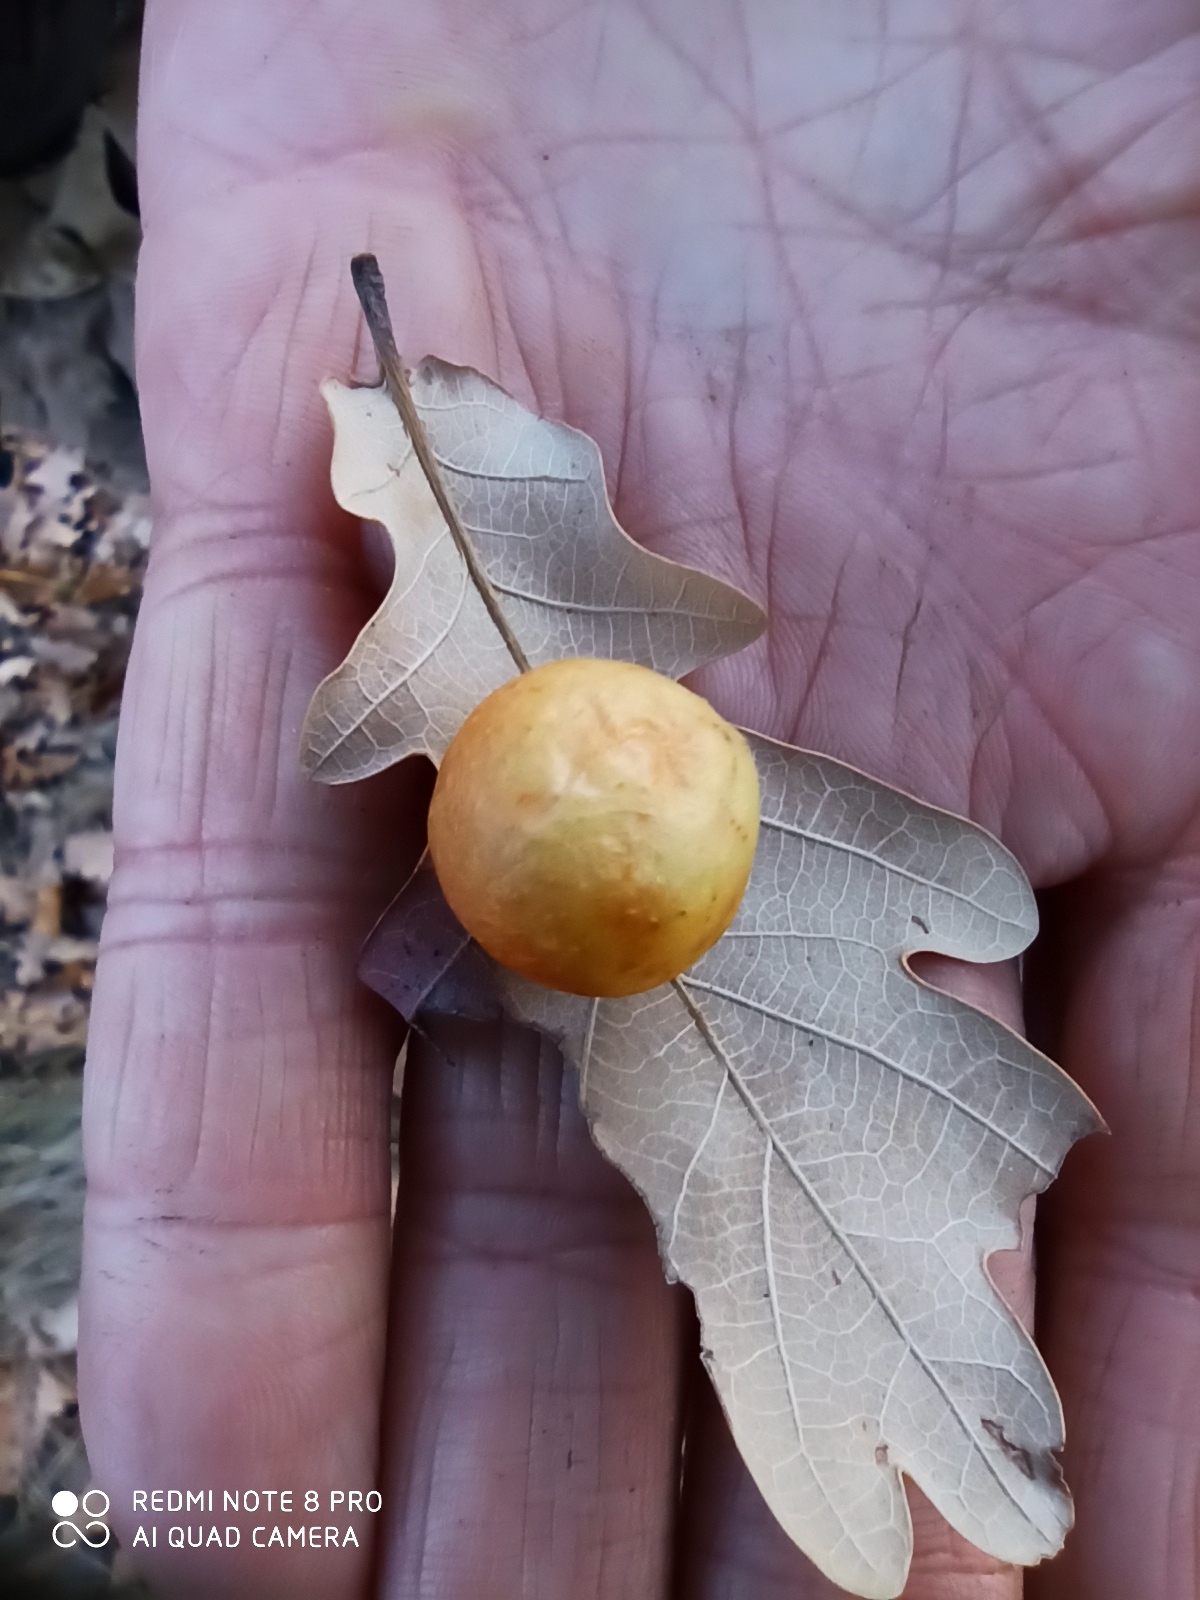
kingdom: Animalia
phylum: Arthropoda
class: Insecta
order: Hymenoptera
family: Cynipidae
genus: Cynips
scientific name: Cynips quercusfolii
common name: Cherry gall
